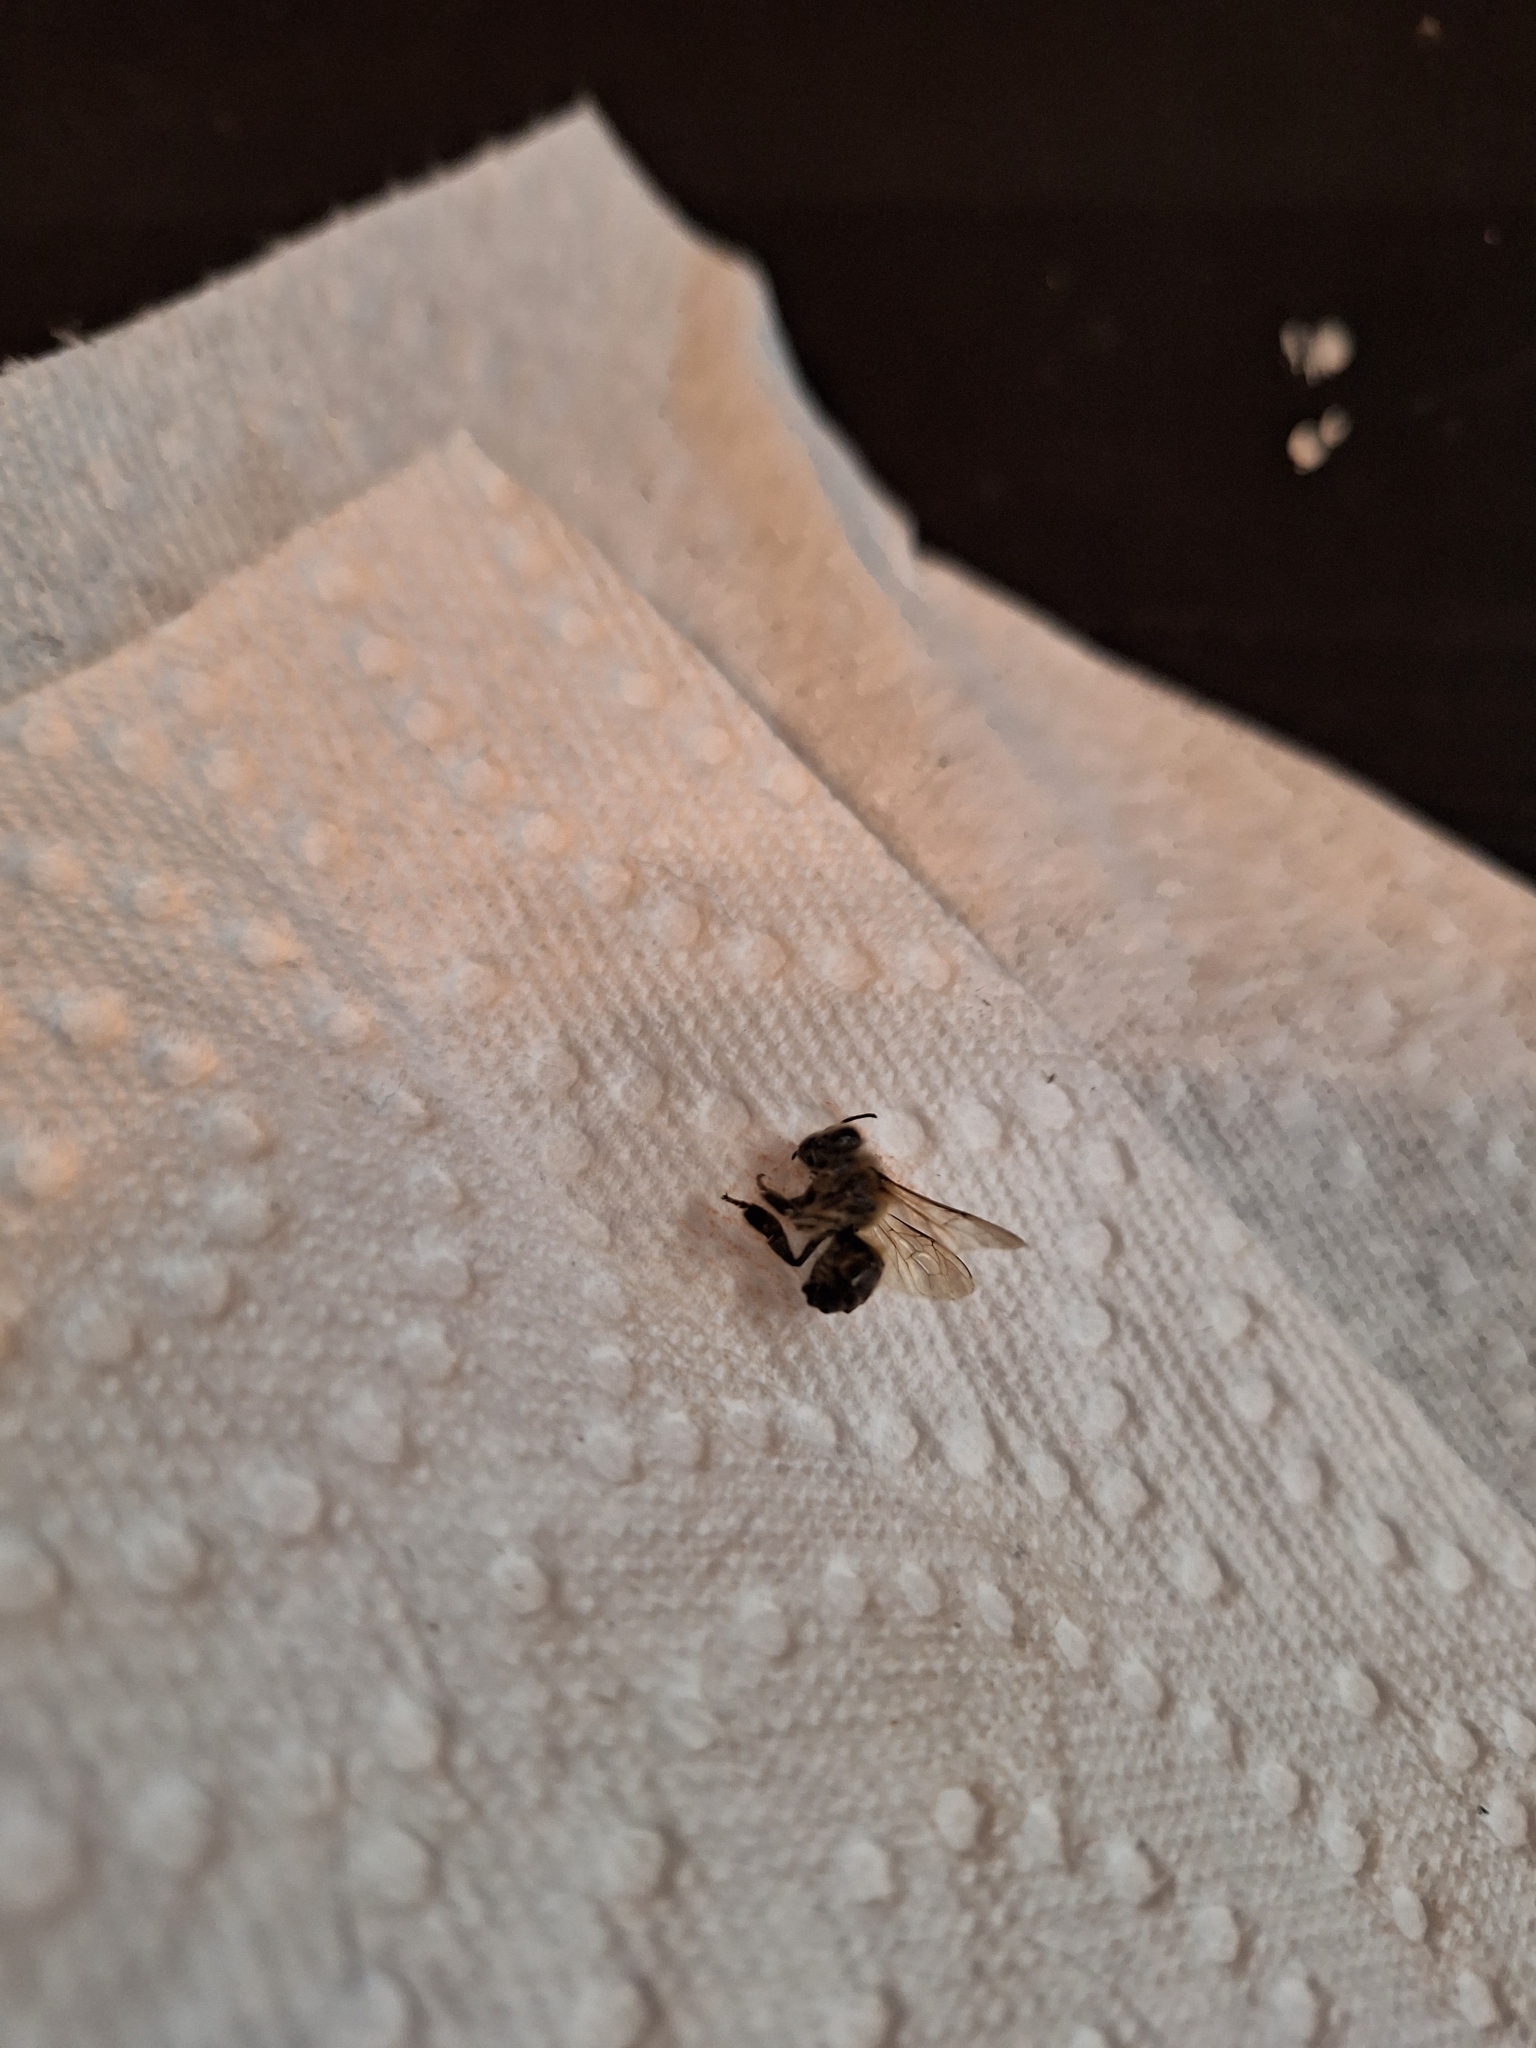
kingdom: Animalia
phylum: Arthropoda
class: Insecta
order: Hymenoptera
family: Apidae
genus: Apis
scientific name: Apis mellifera
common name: Honey bee
